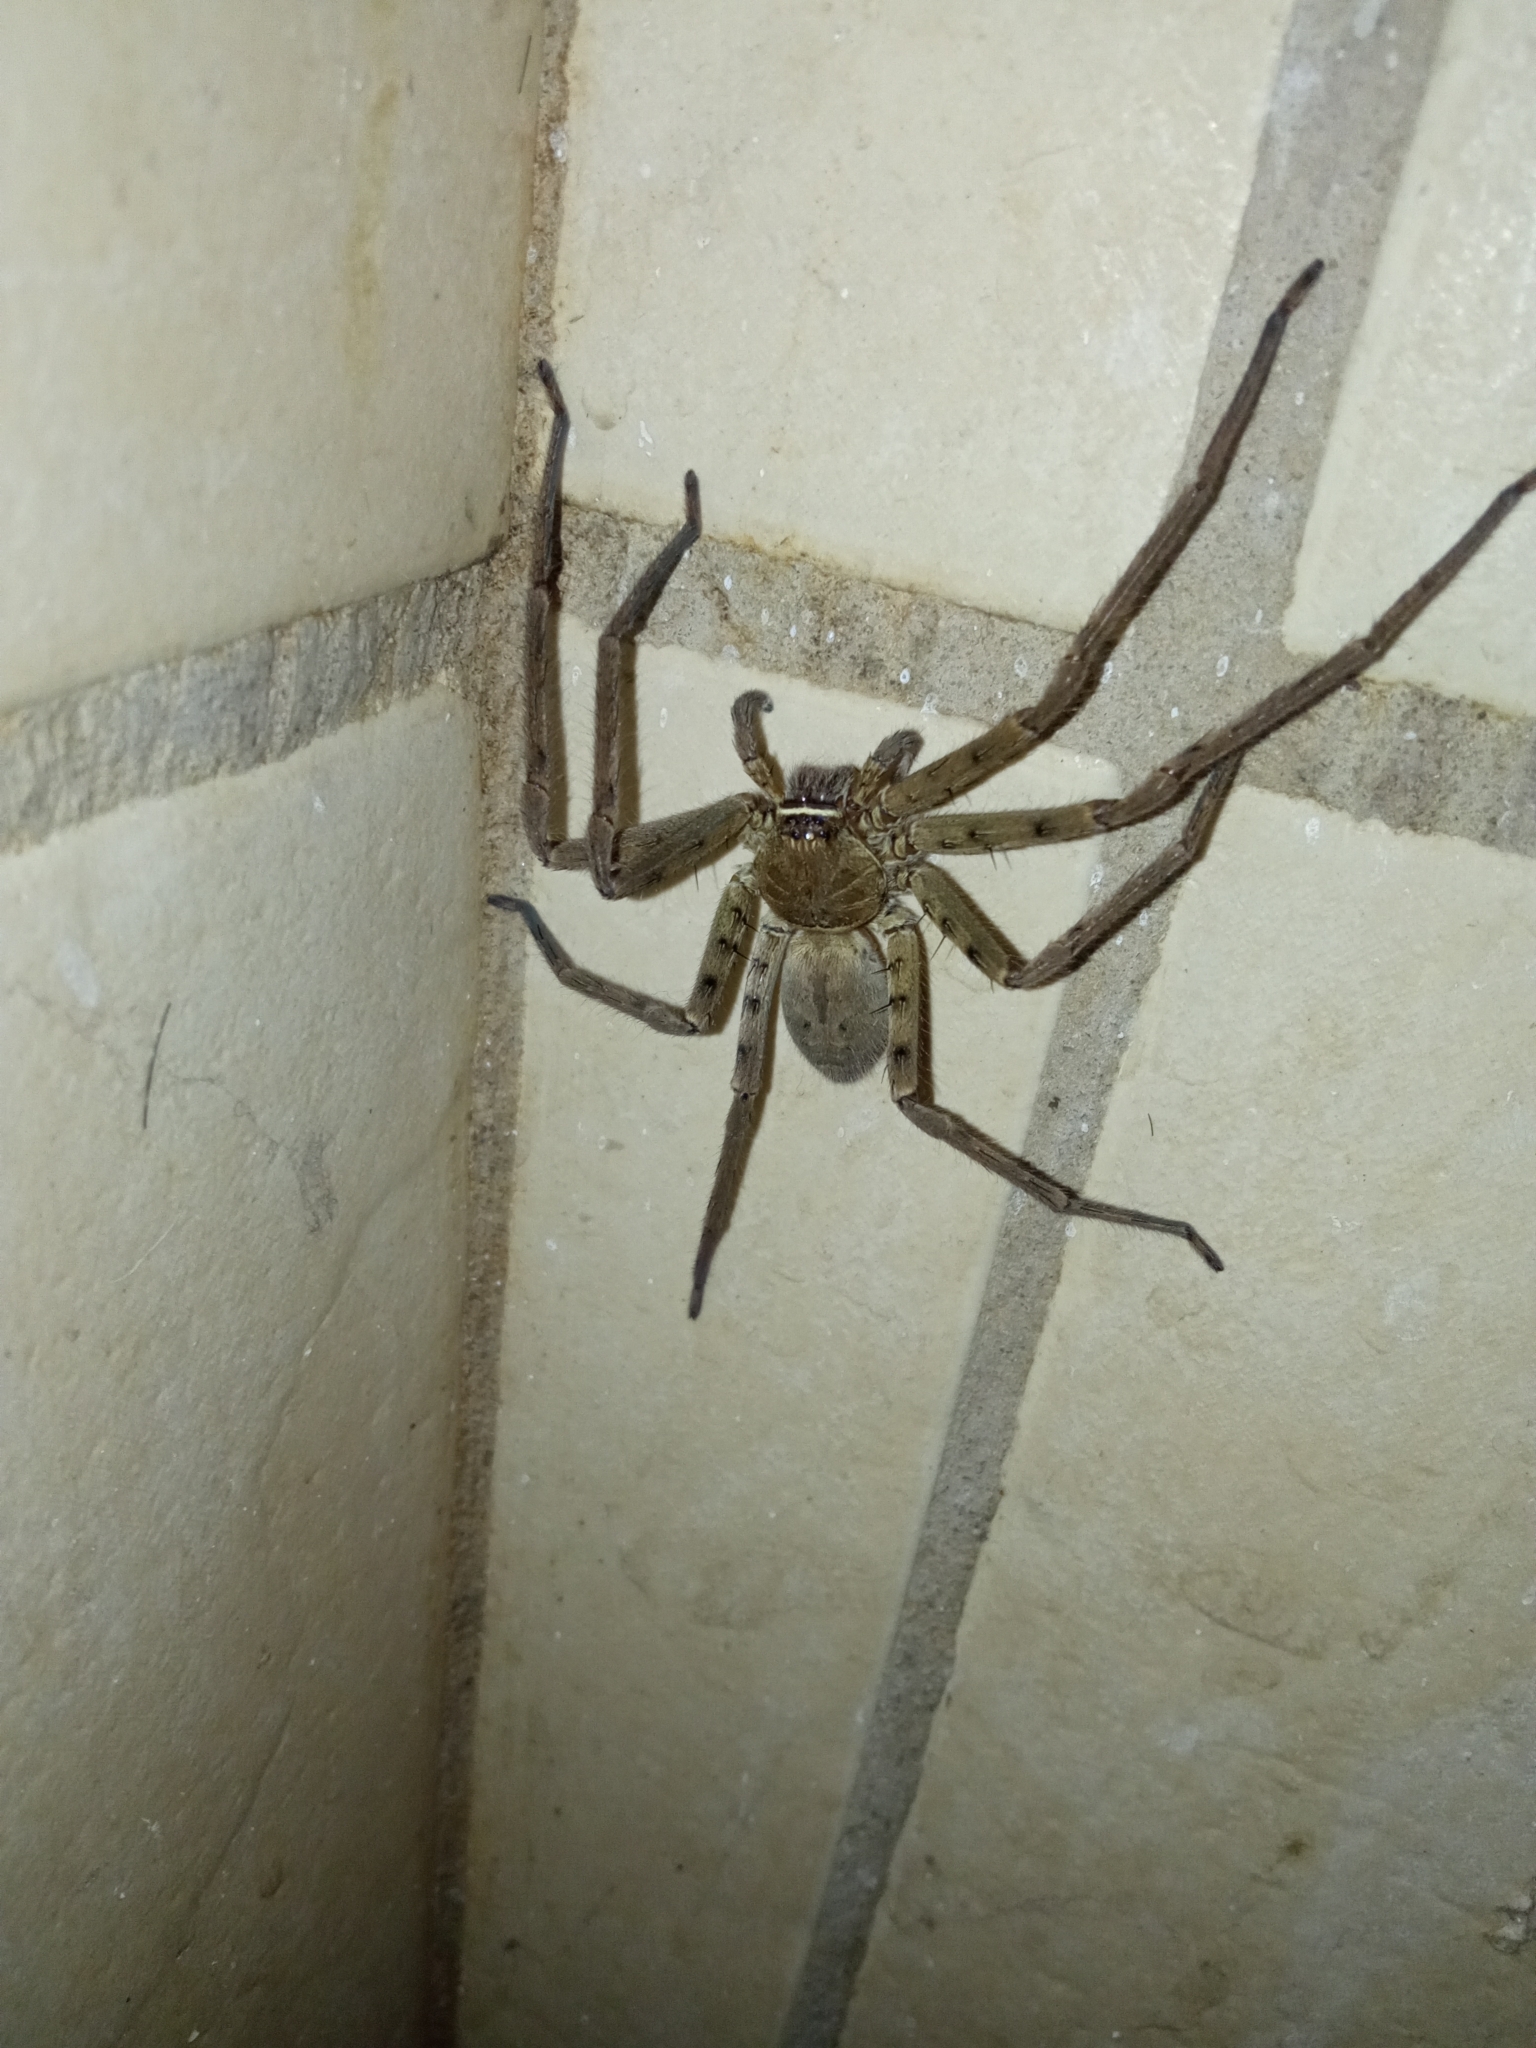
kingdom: Animalia
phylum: Arthropoda
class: Arachnida
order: Araneae
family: Sparassidae
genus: Heteropoda
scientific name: Heteropoda venatoria
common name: Huntsman spider
